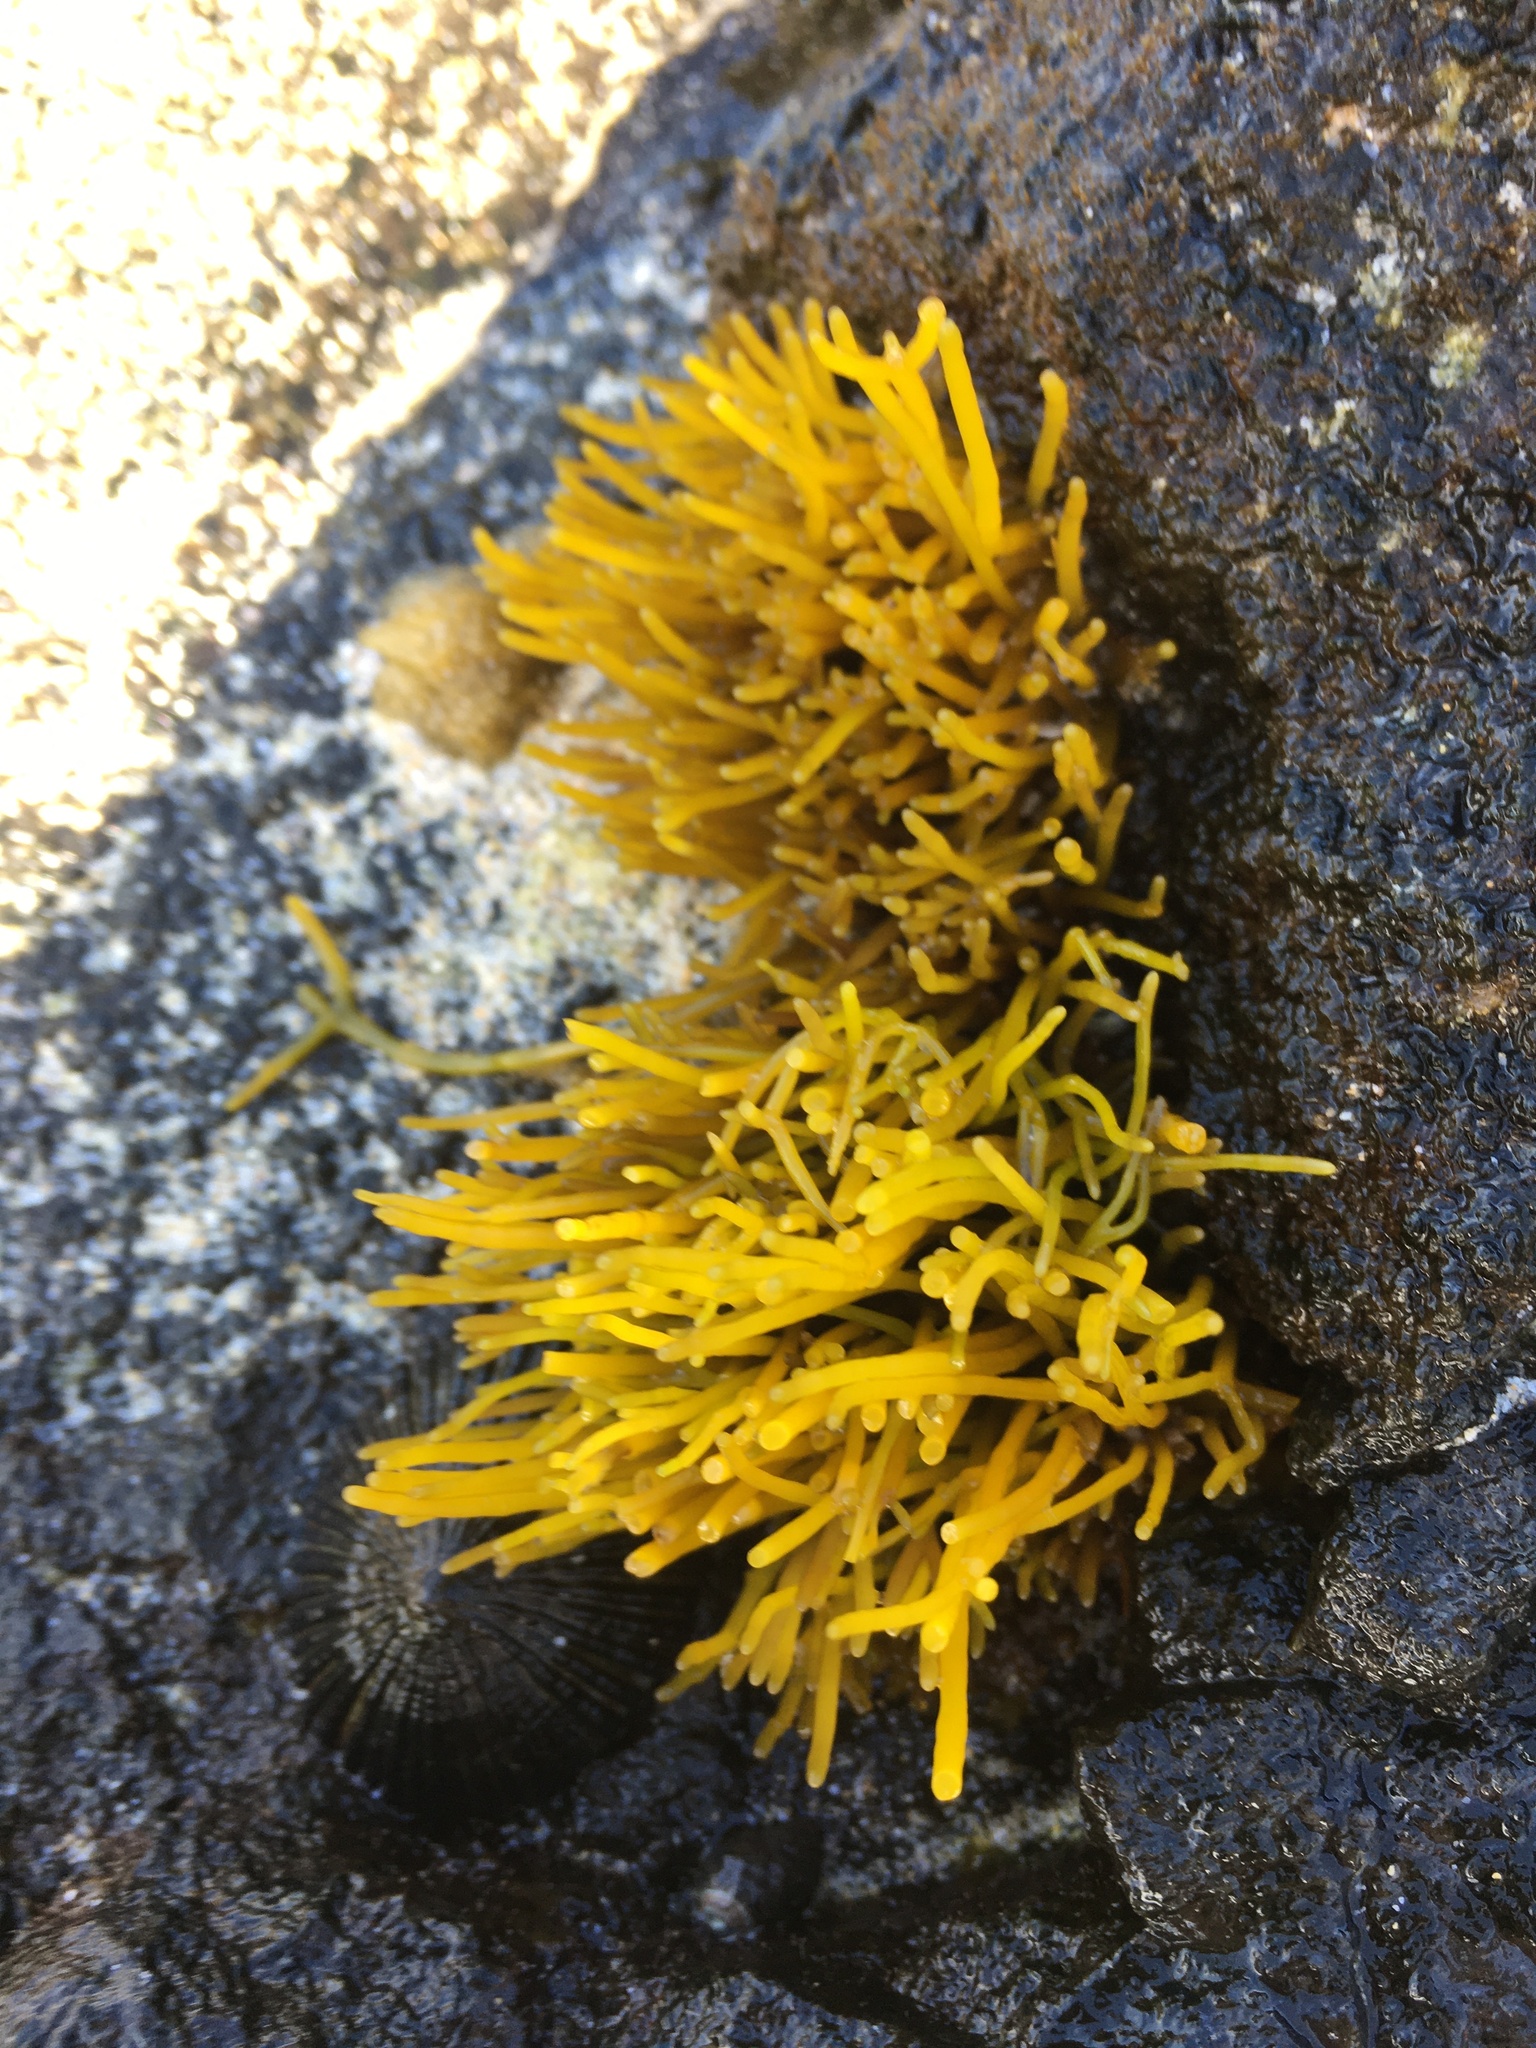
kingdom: Plantae
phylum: Rhodophyta
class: Florideophyceae
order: Gigartinales
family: Phyllophoraceae
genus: Gymnogongrus
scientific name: Gymnogongrus durvillei
